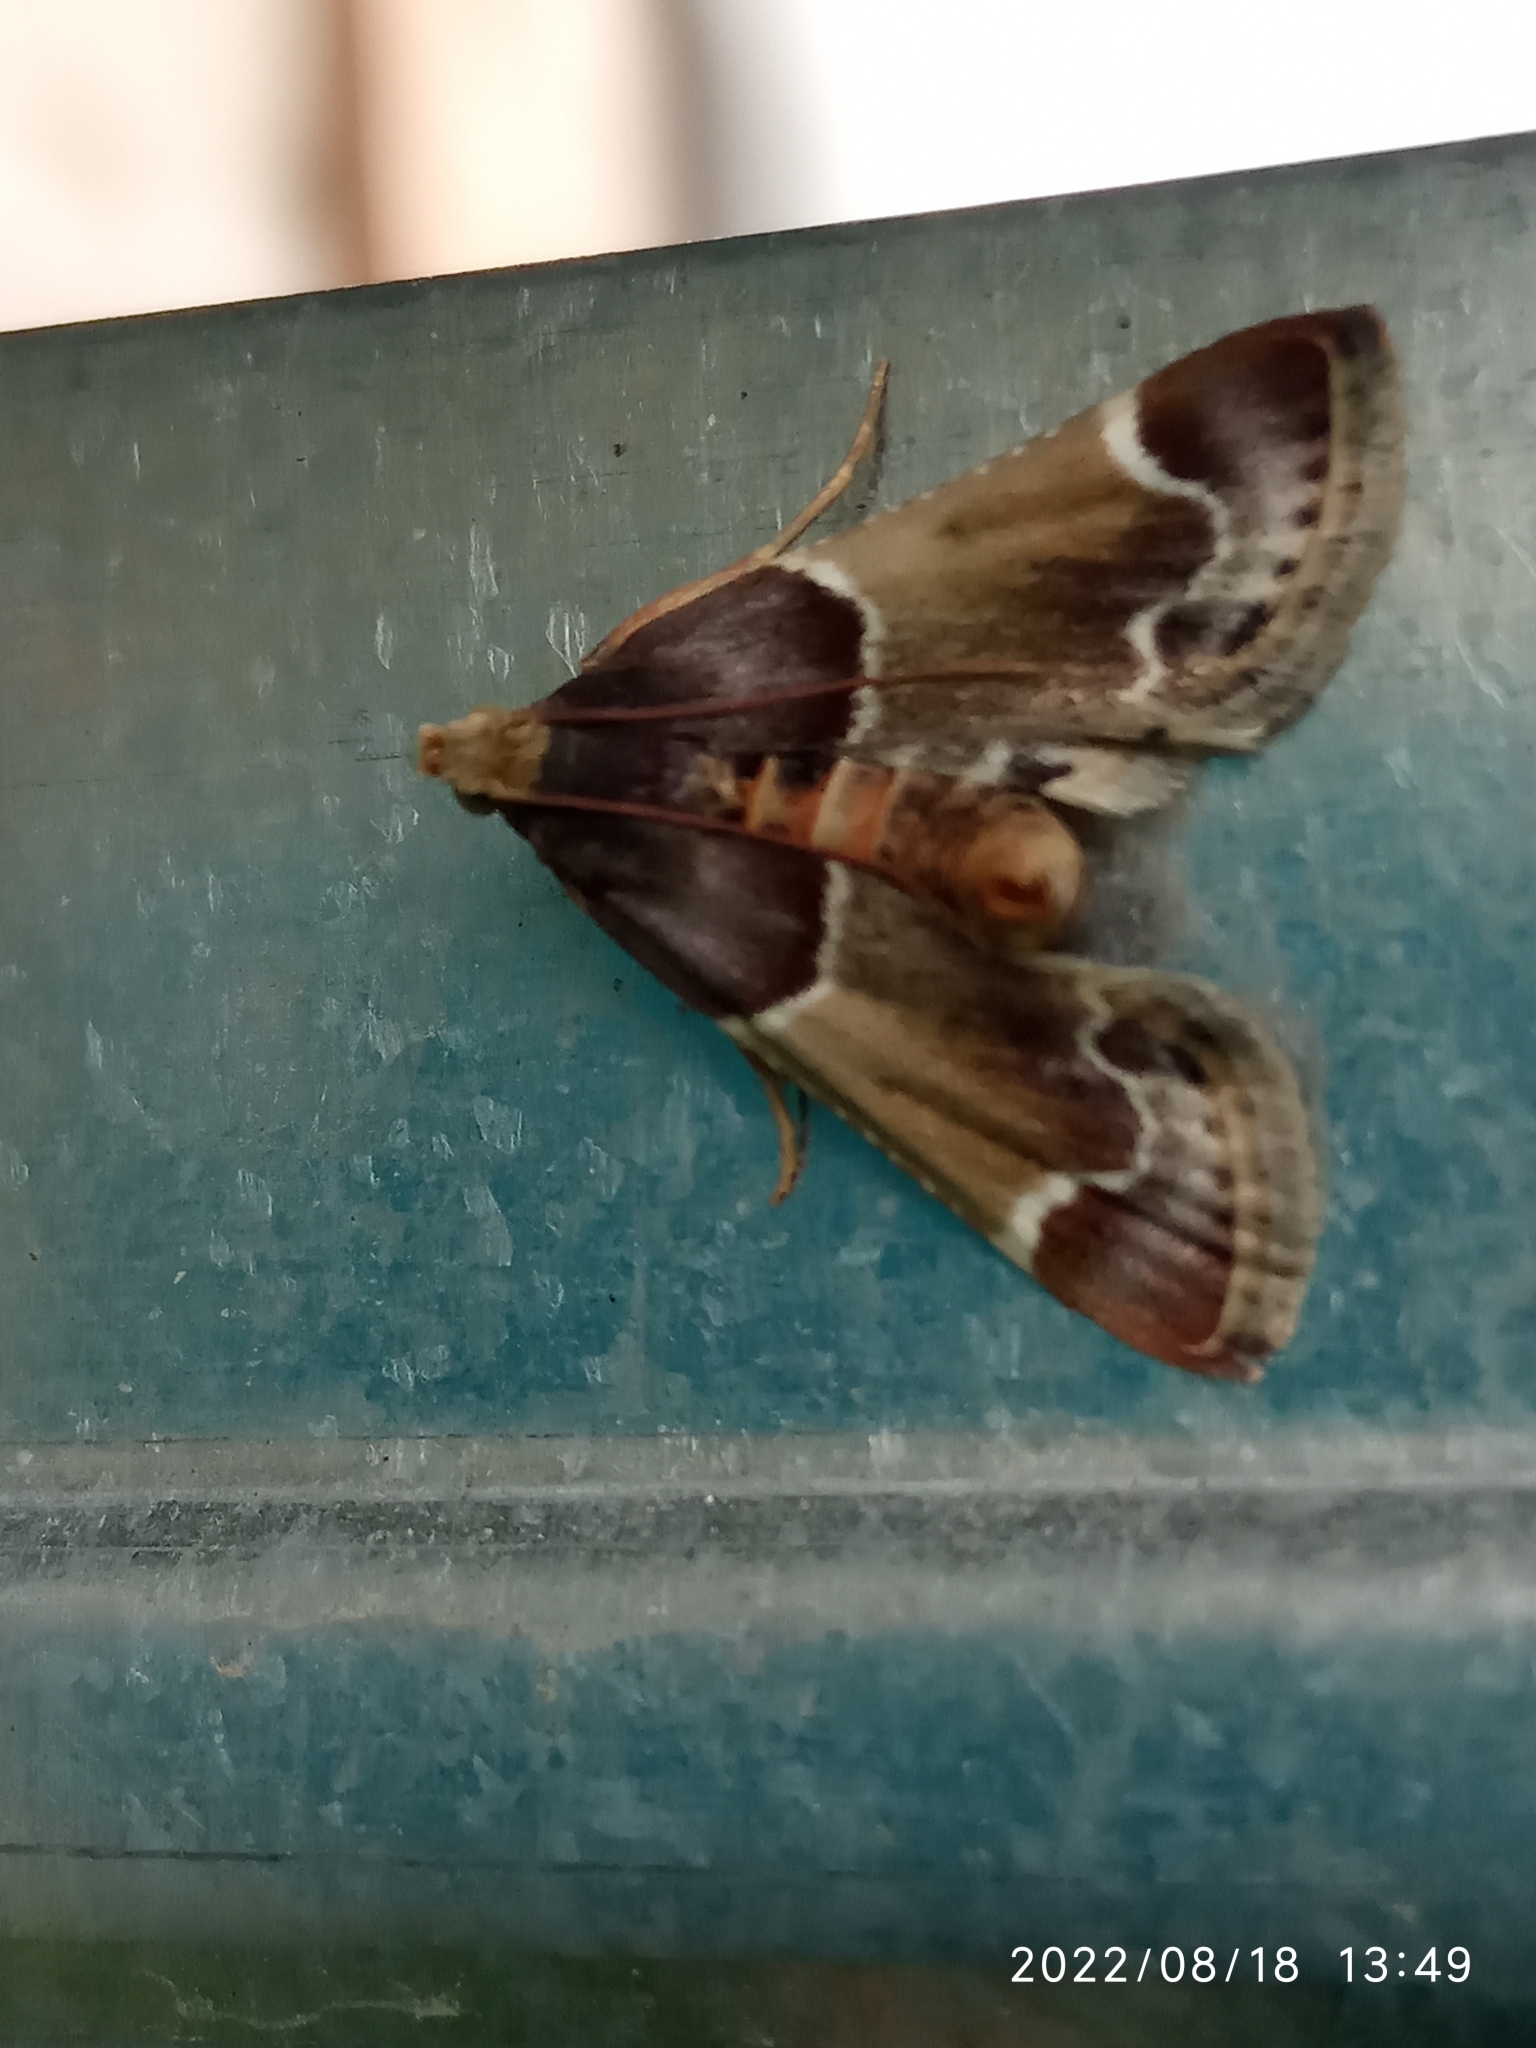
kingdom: Animalia
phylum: Arthropoda
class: Insecta
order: Lepidoptera
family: Pyralidae
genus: Pyralis
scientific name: Pyralis farinalis
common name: Meal moth
